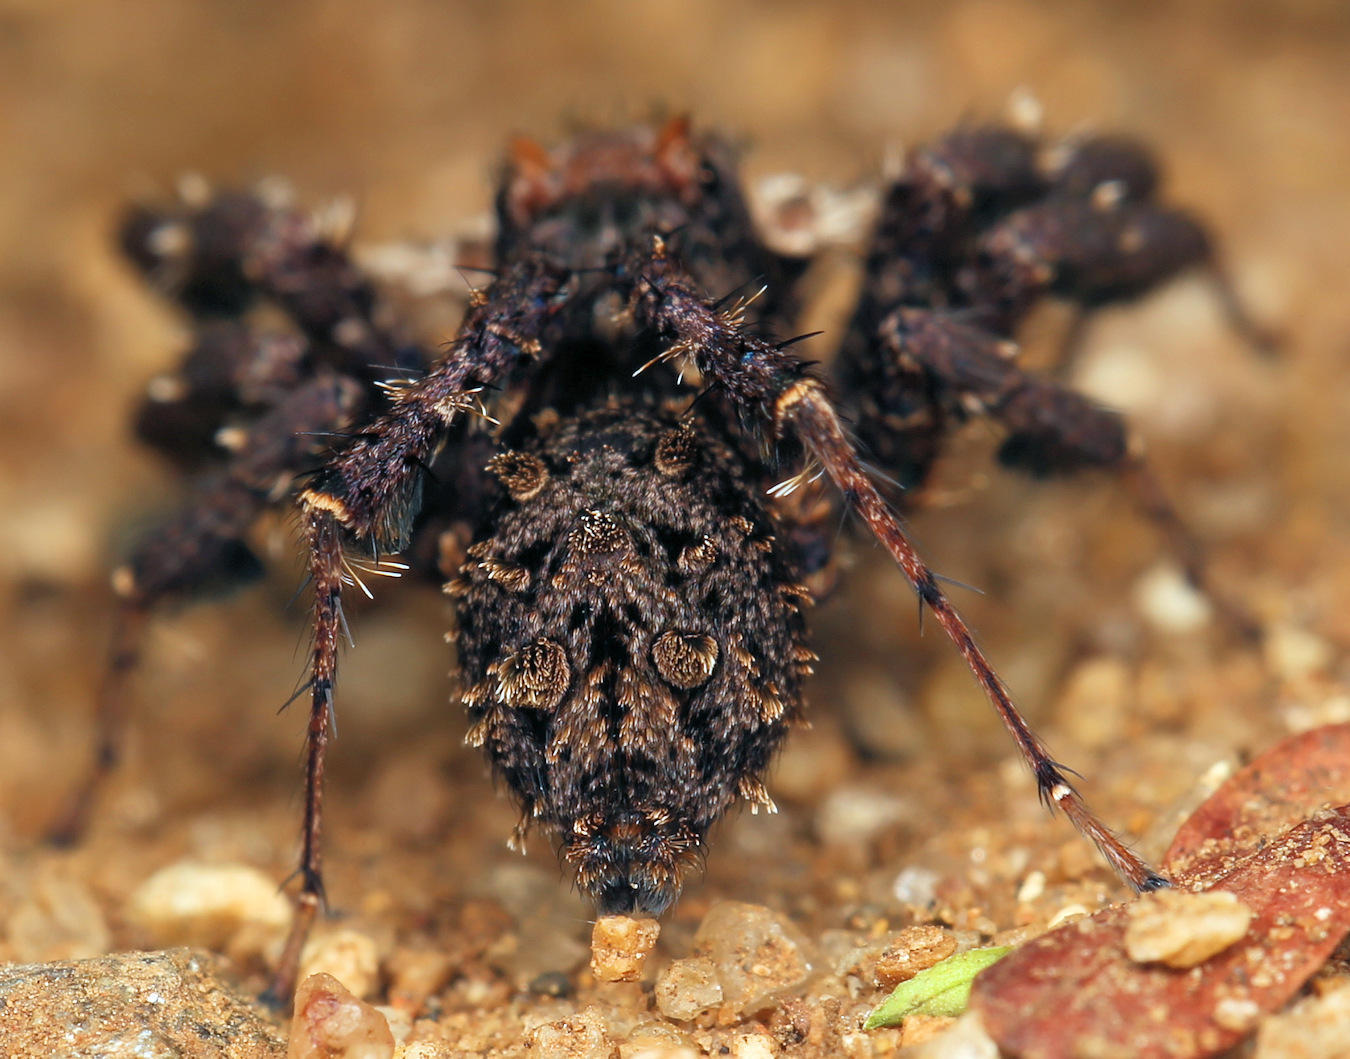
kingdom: Animalia
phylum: Arthropoda
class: Arachnida
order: Araneae
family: Salticidae
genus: Portia
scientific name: Portia schultzi
